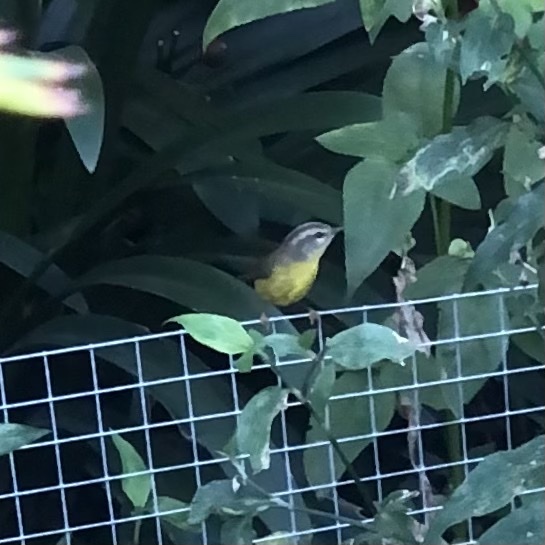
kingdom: Animalia
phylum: Chordata
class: Aves
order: Passeriformes
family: Parulidae
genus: Basileuterus
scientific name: Basileuterus culicivorus
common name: Golden-crowned warbler
